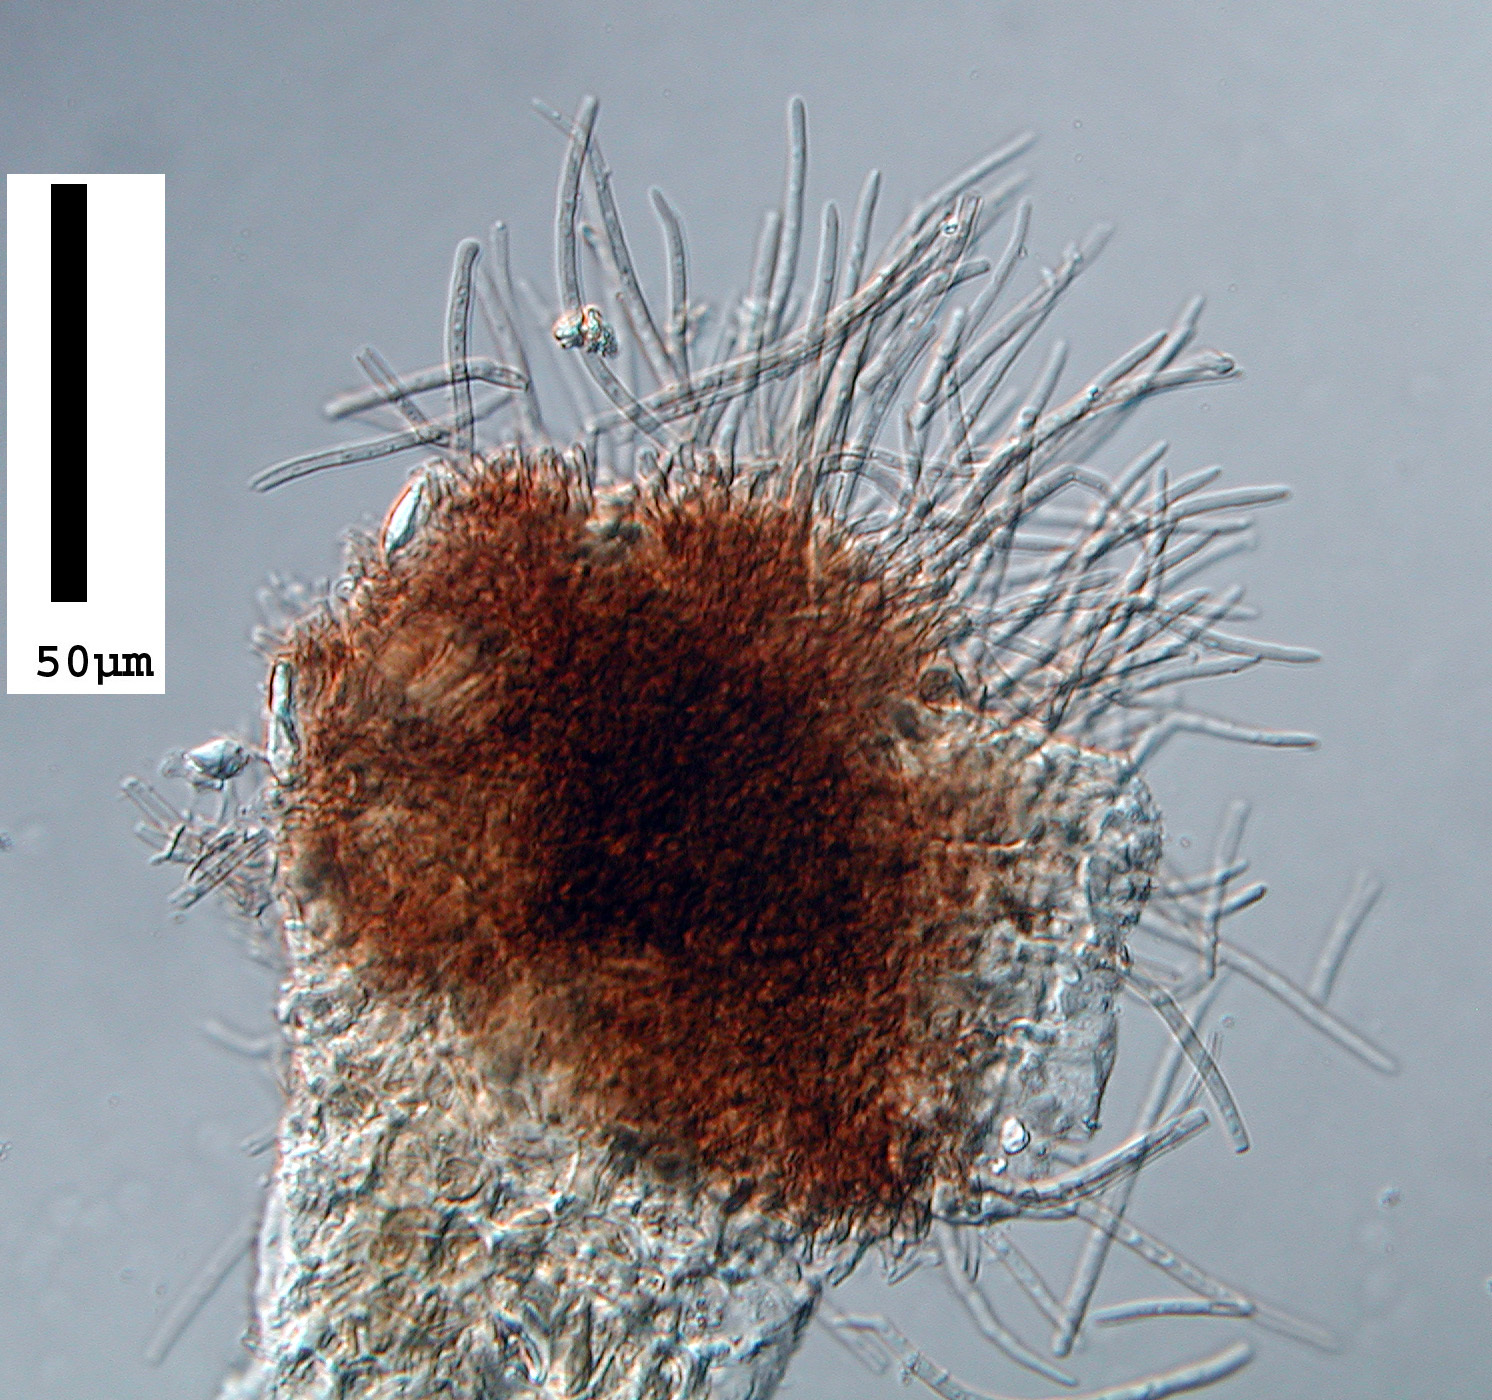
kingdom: Fungi
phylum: Ascomycota
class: Dothideomycetes
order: Mycosphaerellales
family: Mycosphaerellaceae
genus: Mycosphaerella
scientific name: Mycosphaerella confusa
